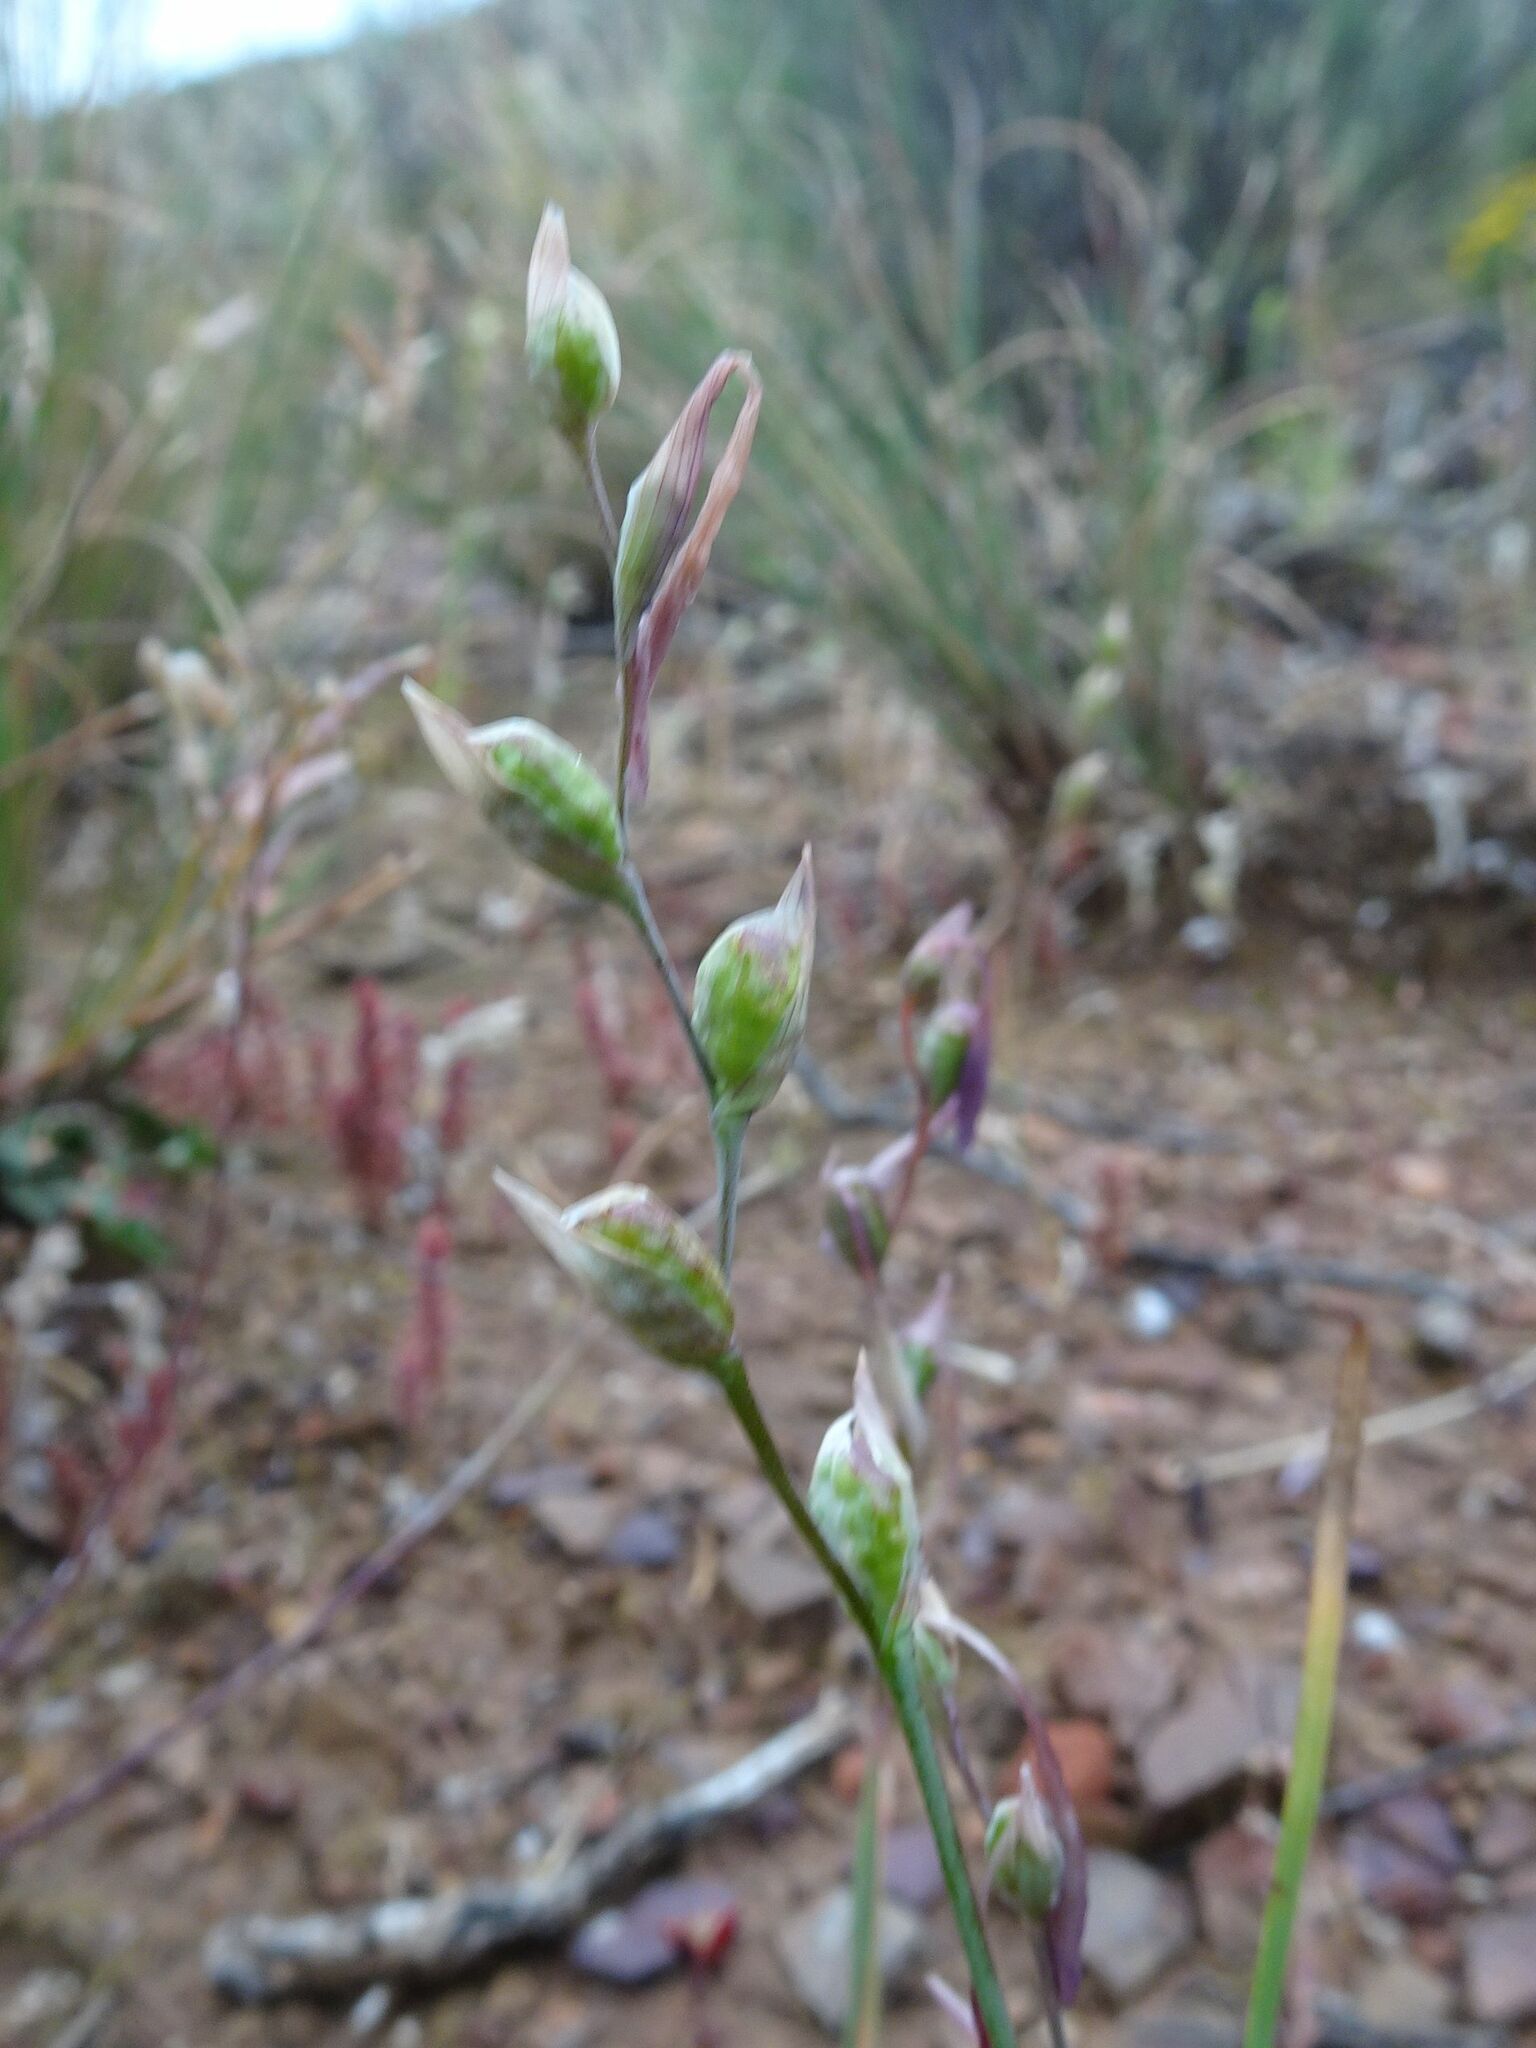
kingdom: Plantae
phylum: Tracheophyta
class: Liliopsida
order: Asparagales
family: Iridaceae
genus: Gladiolus
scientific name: Gladiolus permeabilis
